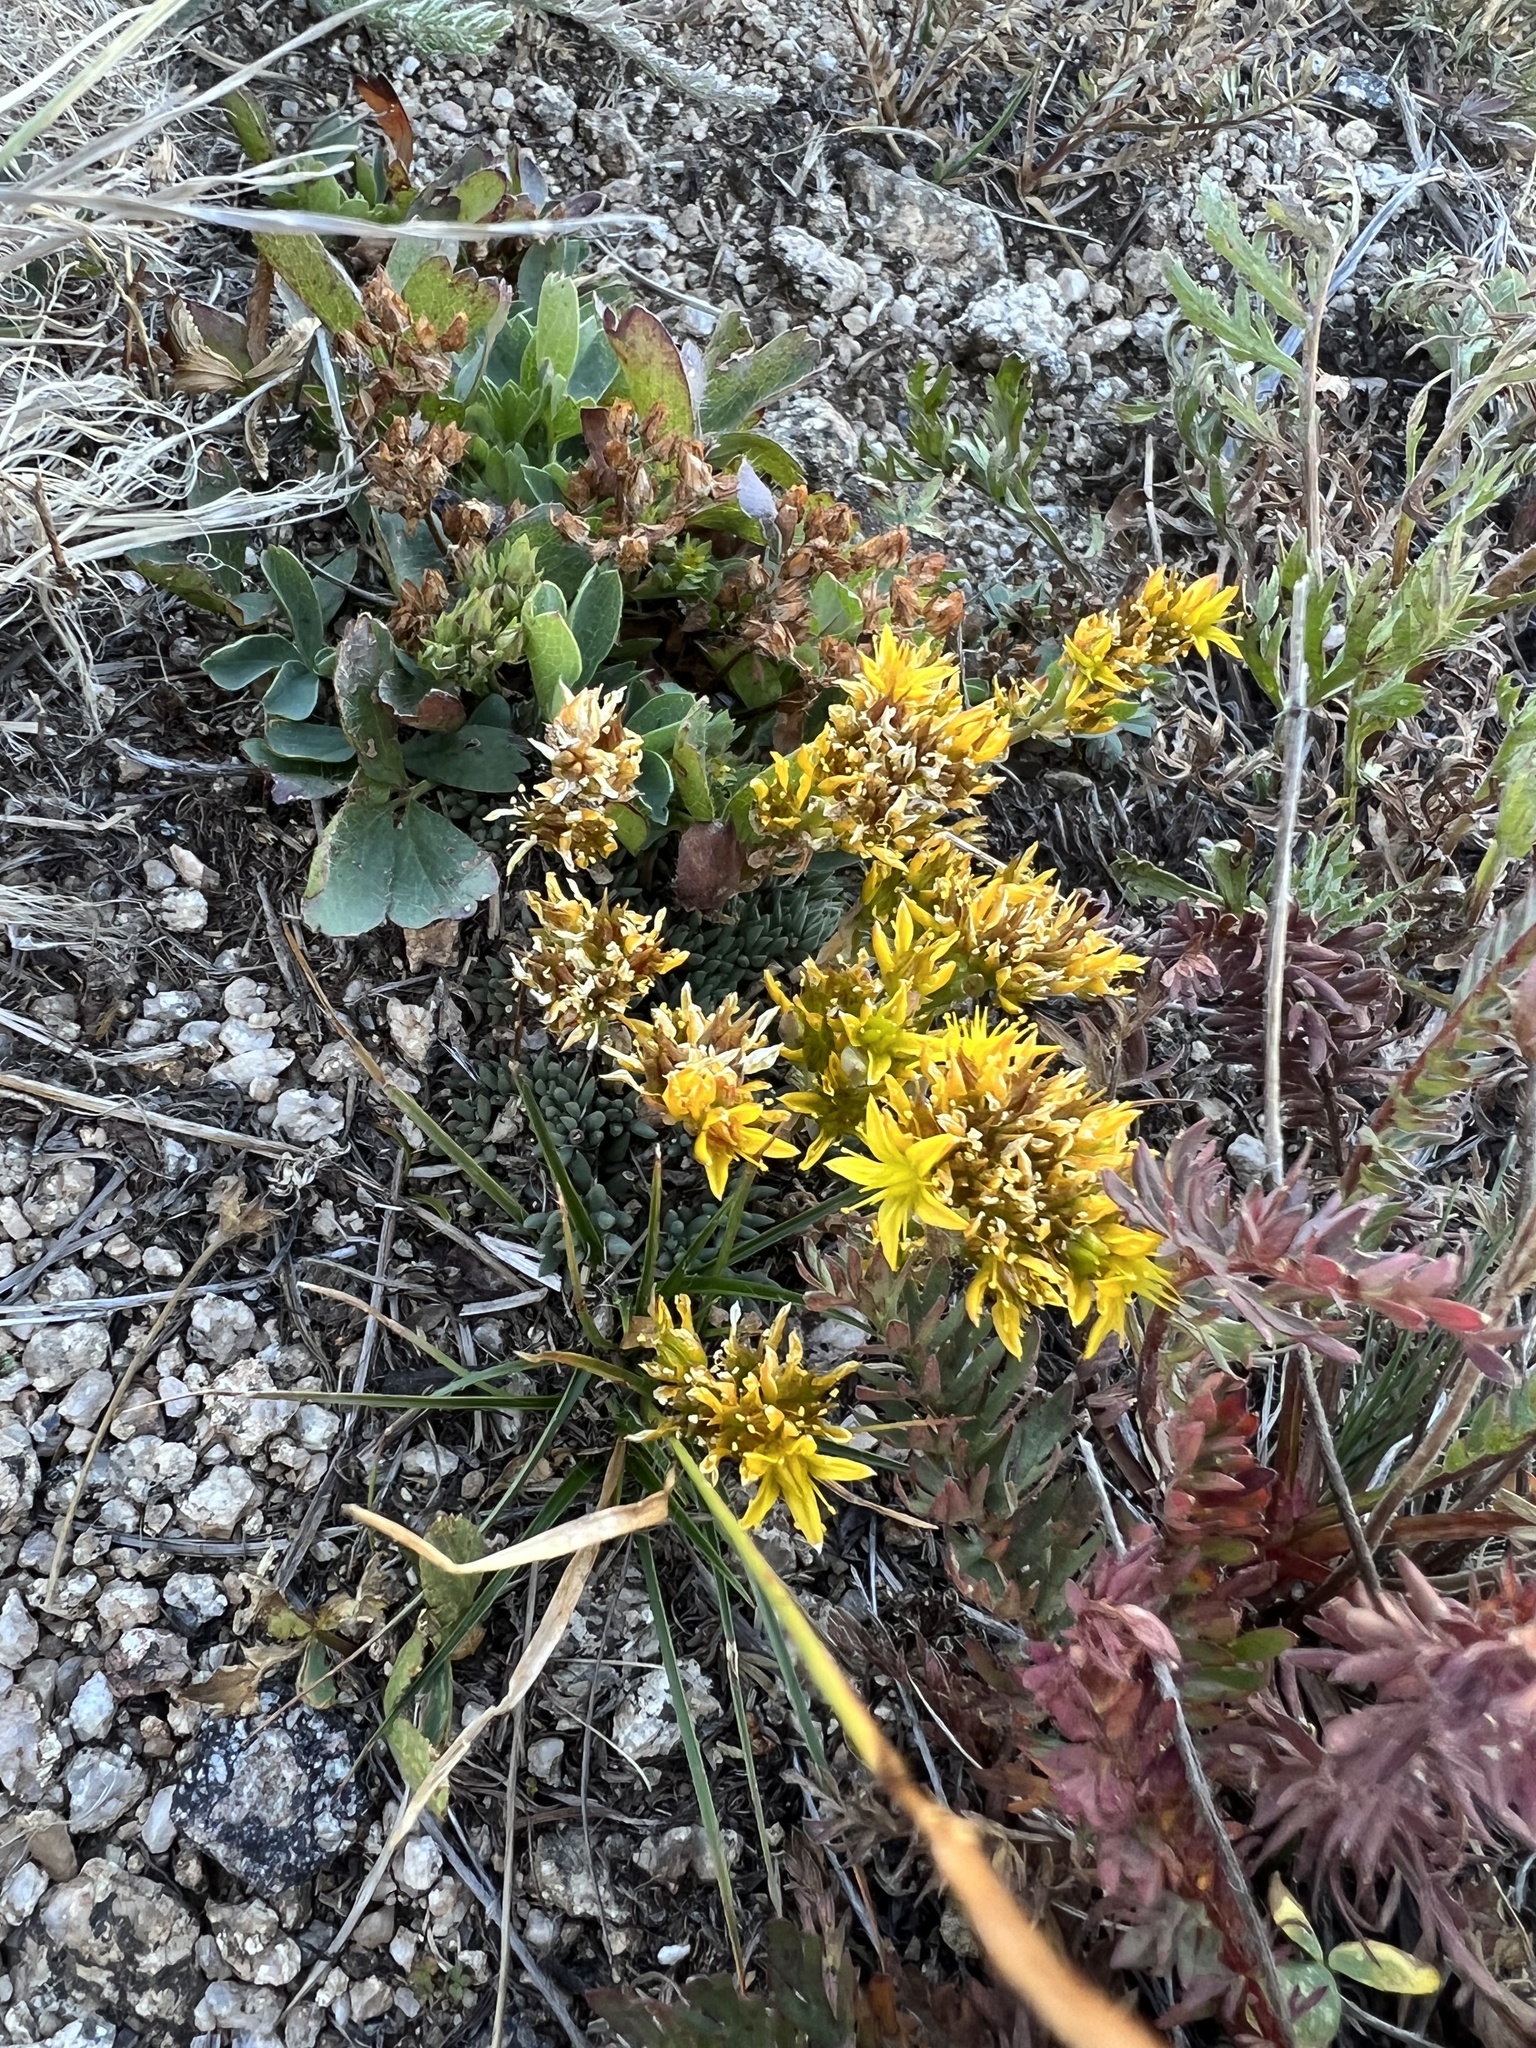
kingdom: Plantae
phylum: Tracheophyta
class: Magnoliopsida
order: Saxifragales
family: Crassulaceae
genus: Sedum
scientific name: Sedum lanceolatum
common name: Common stonecrop
